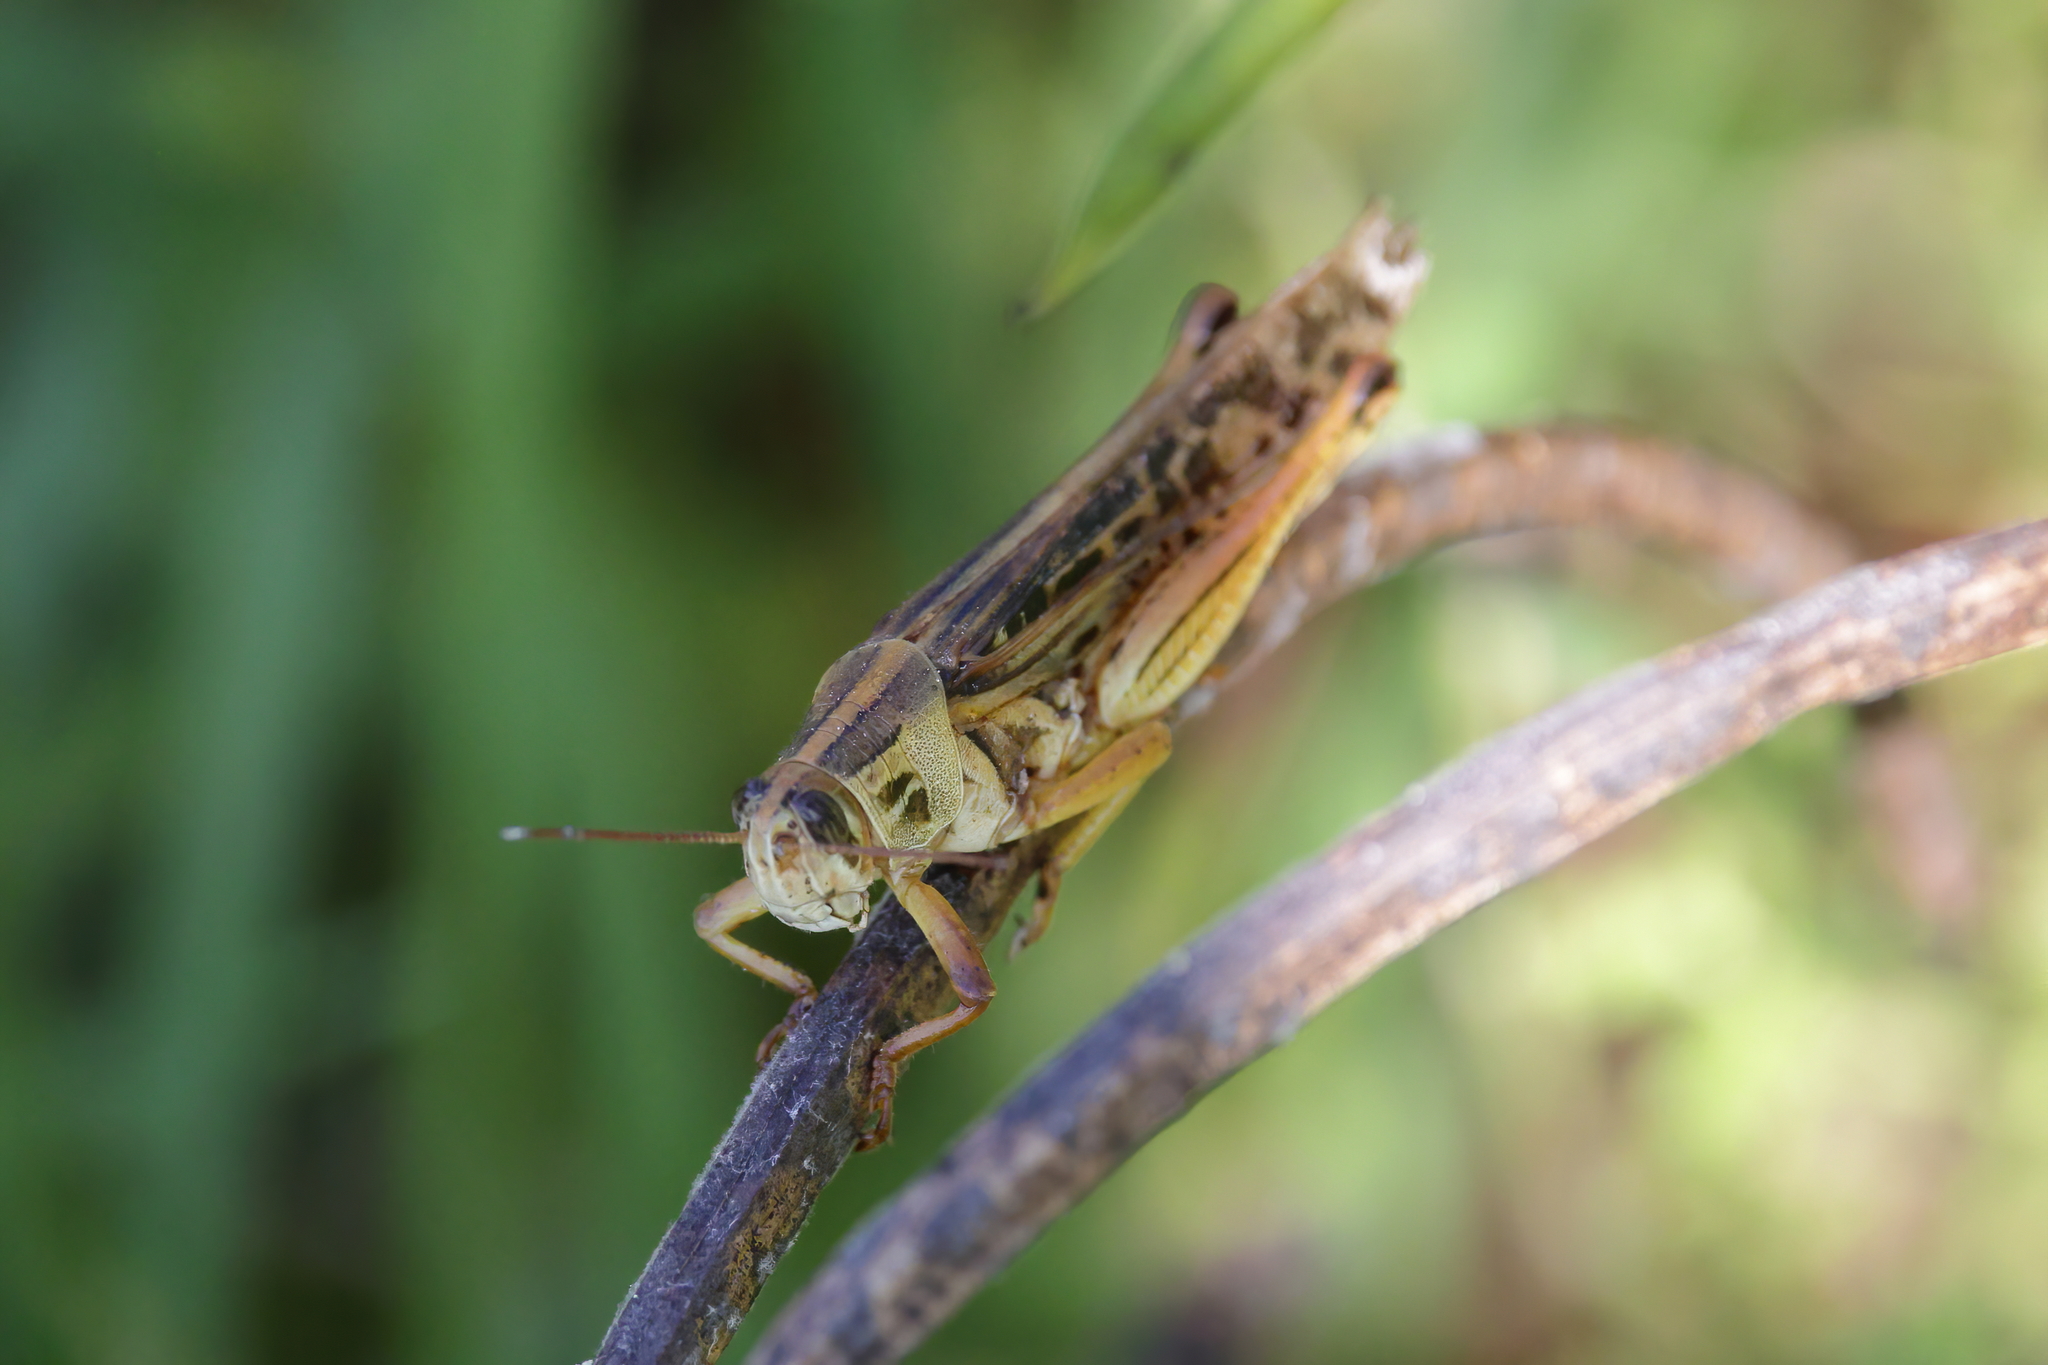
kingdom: Animalia
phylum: Arthropoda
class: Insecta
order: Orthoptera
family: Acrididae
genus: Schistocerca
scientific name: Schistocerca americana
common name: American bird locust
